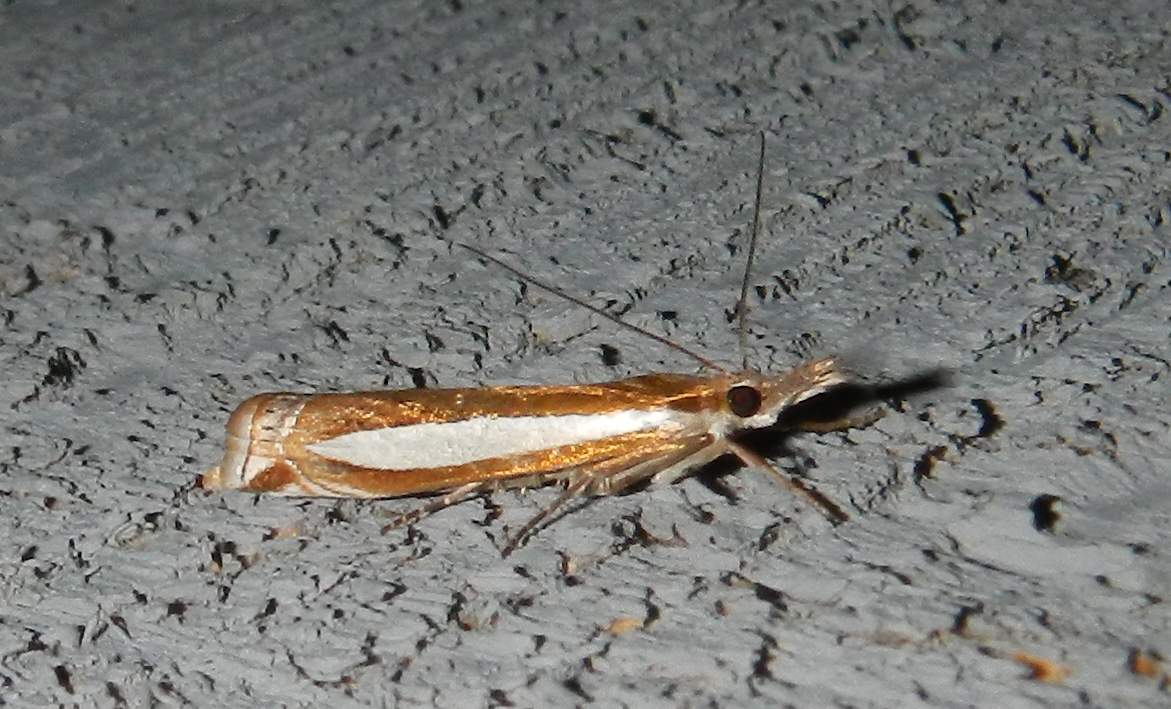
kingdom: Animalia
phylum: Arthropoda
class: Insecta
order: Lepidoptera
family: Crambidae
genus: Crambus
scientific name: Crambus praefectellus
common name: Common grass-veneer
